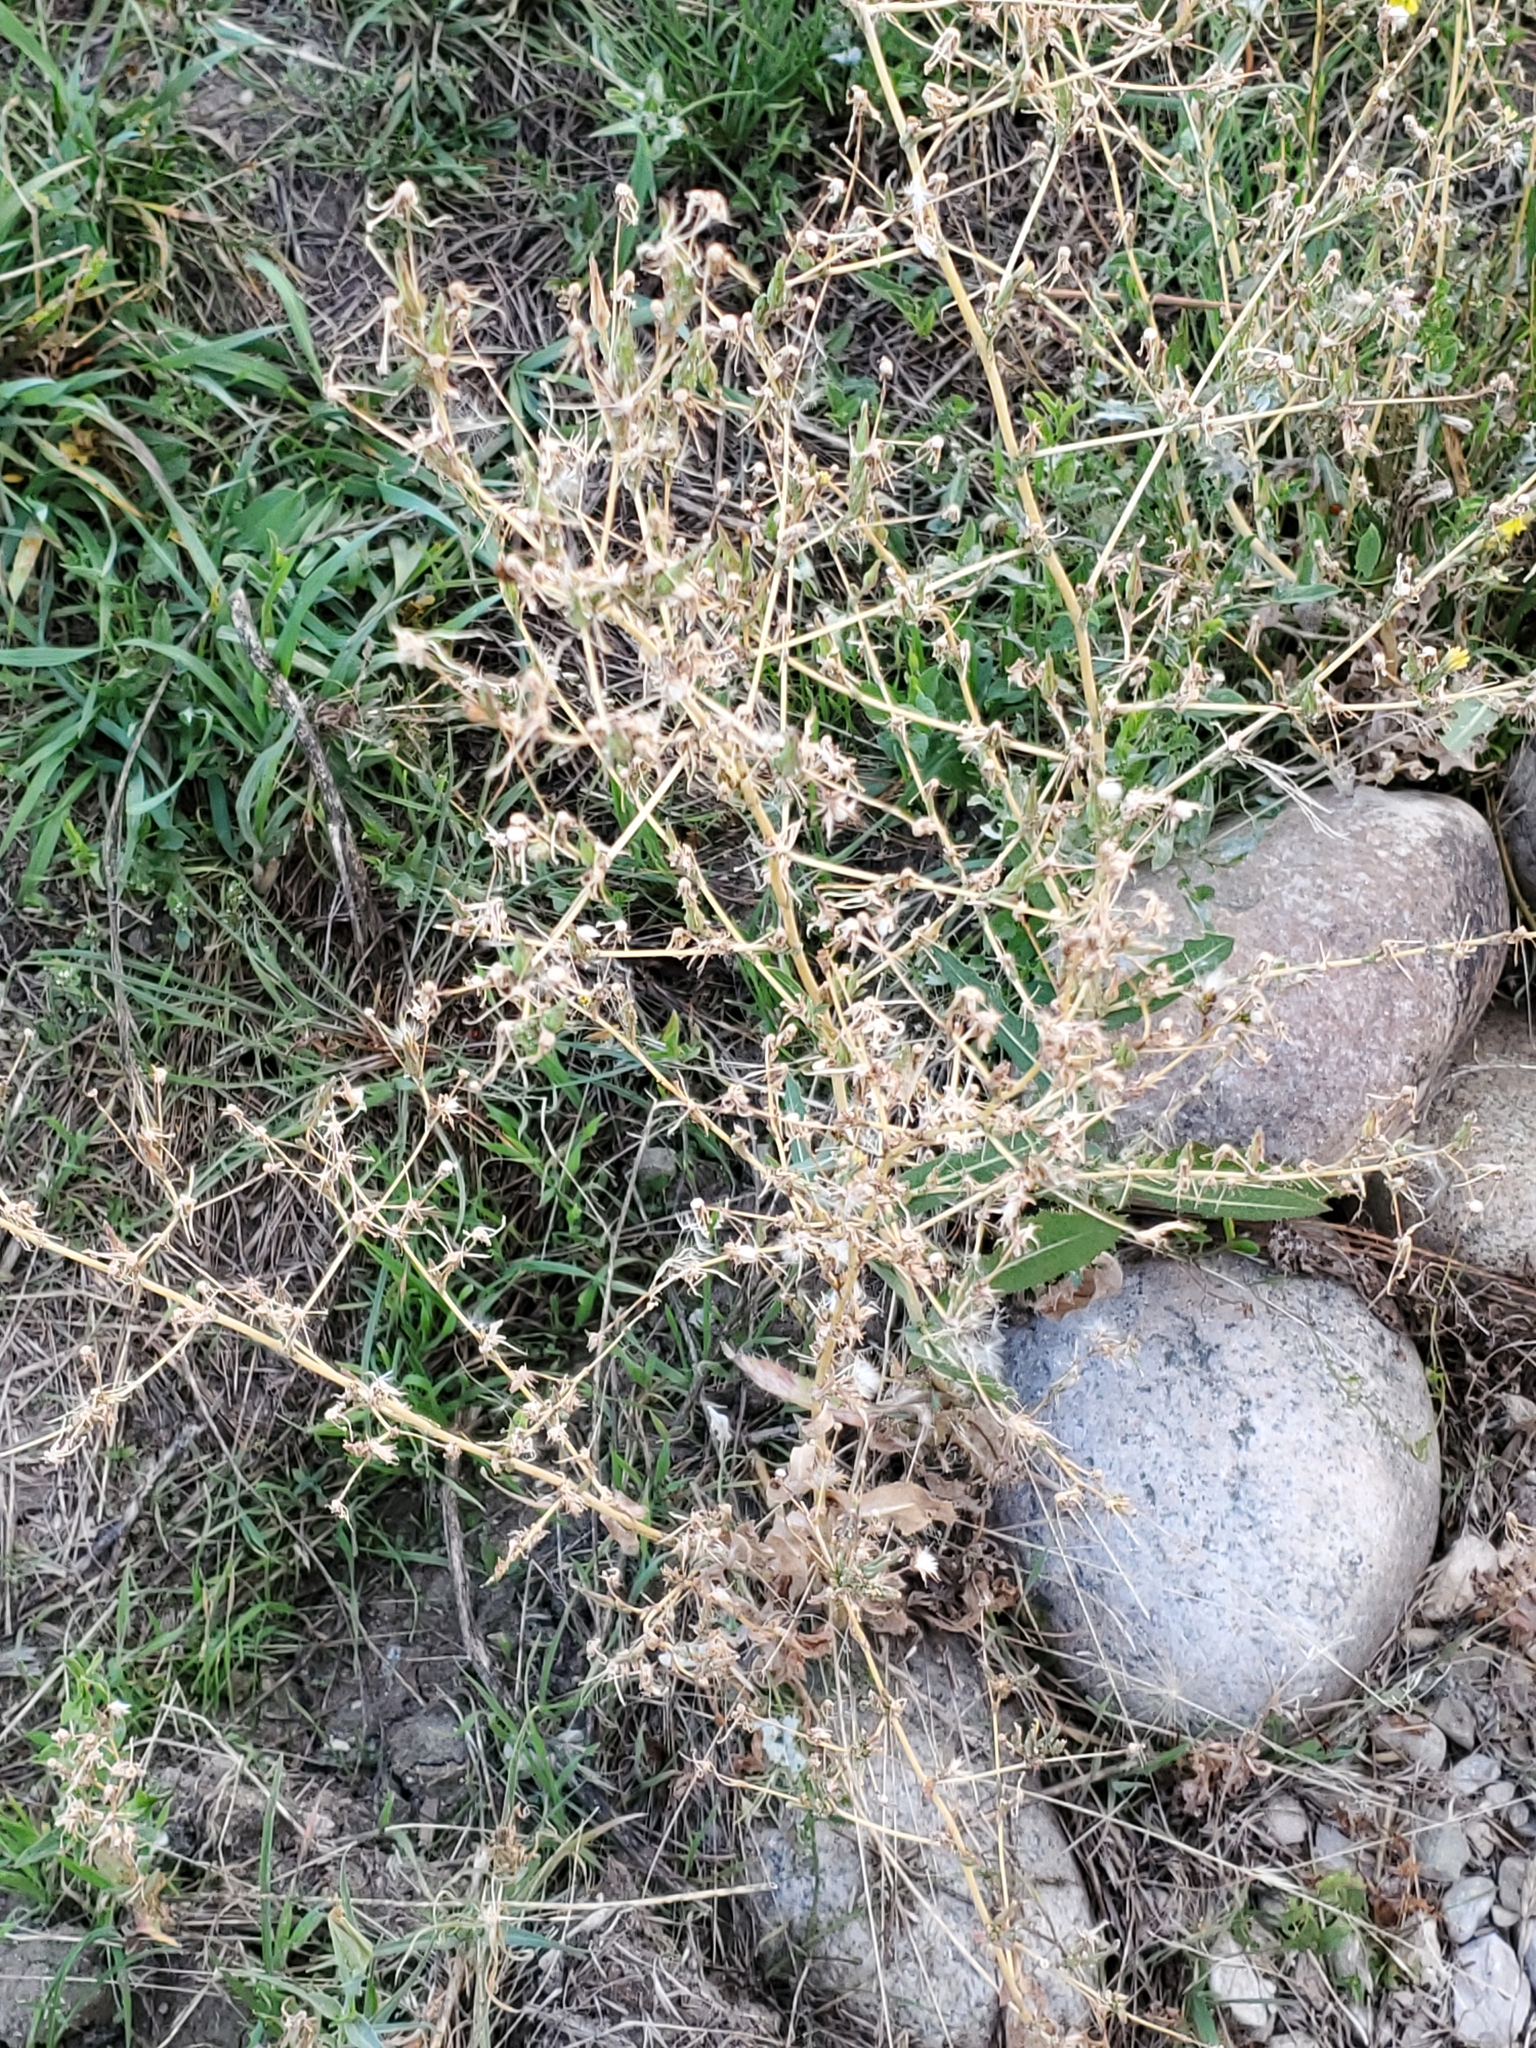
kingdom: Plantae
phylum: Tracheophyta
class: Magnoliopsida
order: Asterales
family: Asteraceae
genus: Lactuca
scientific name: Lactuca serriola
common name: Prickly lettuce
